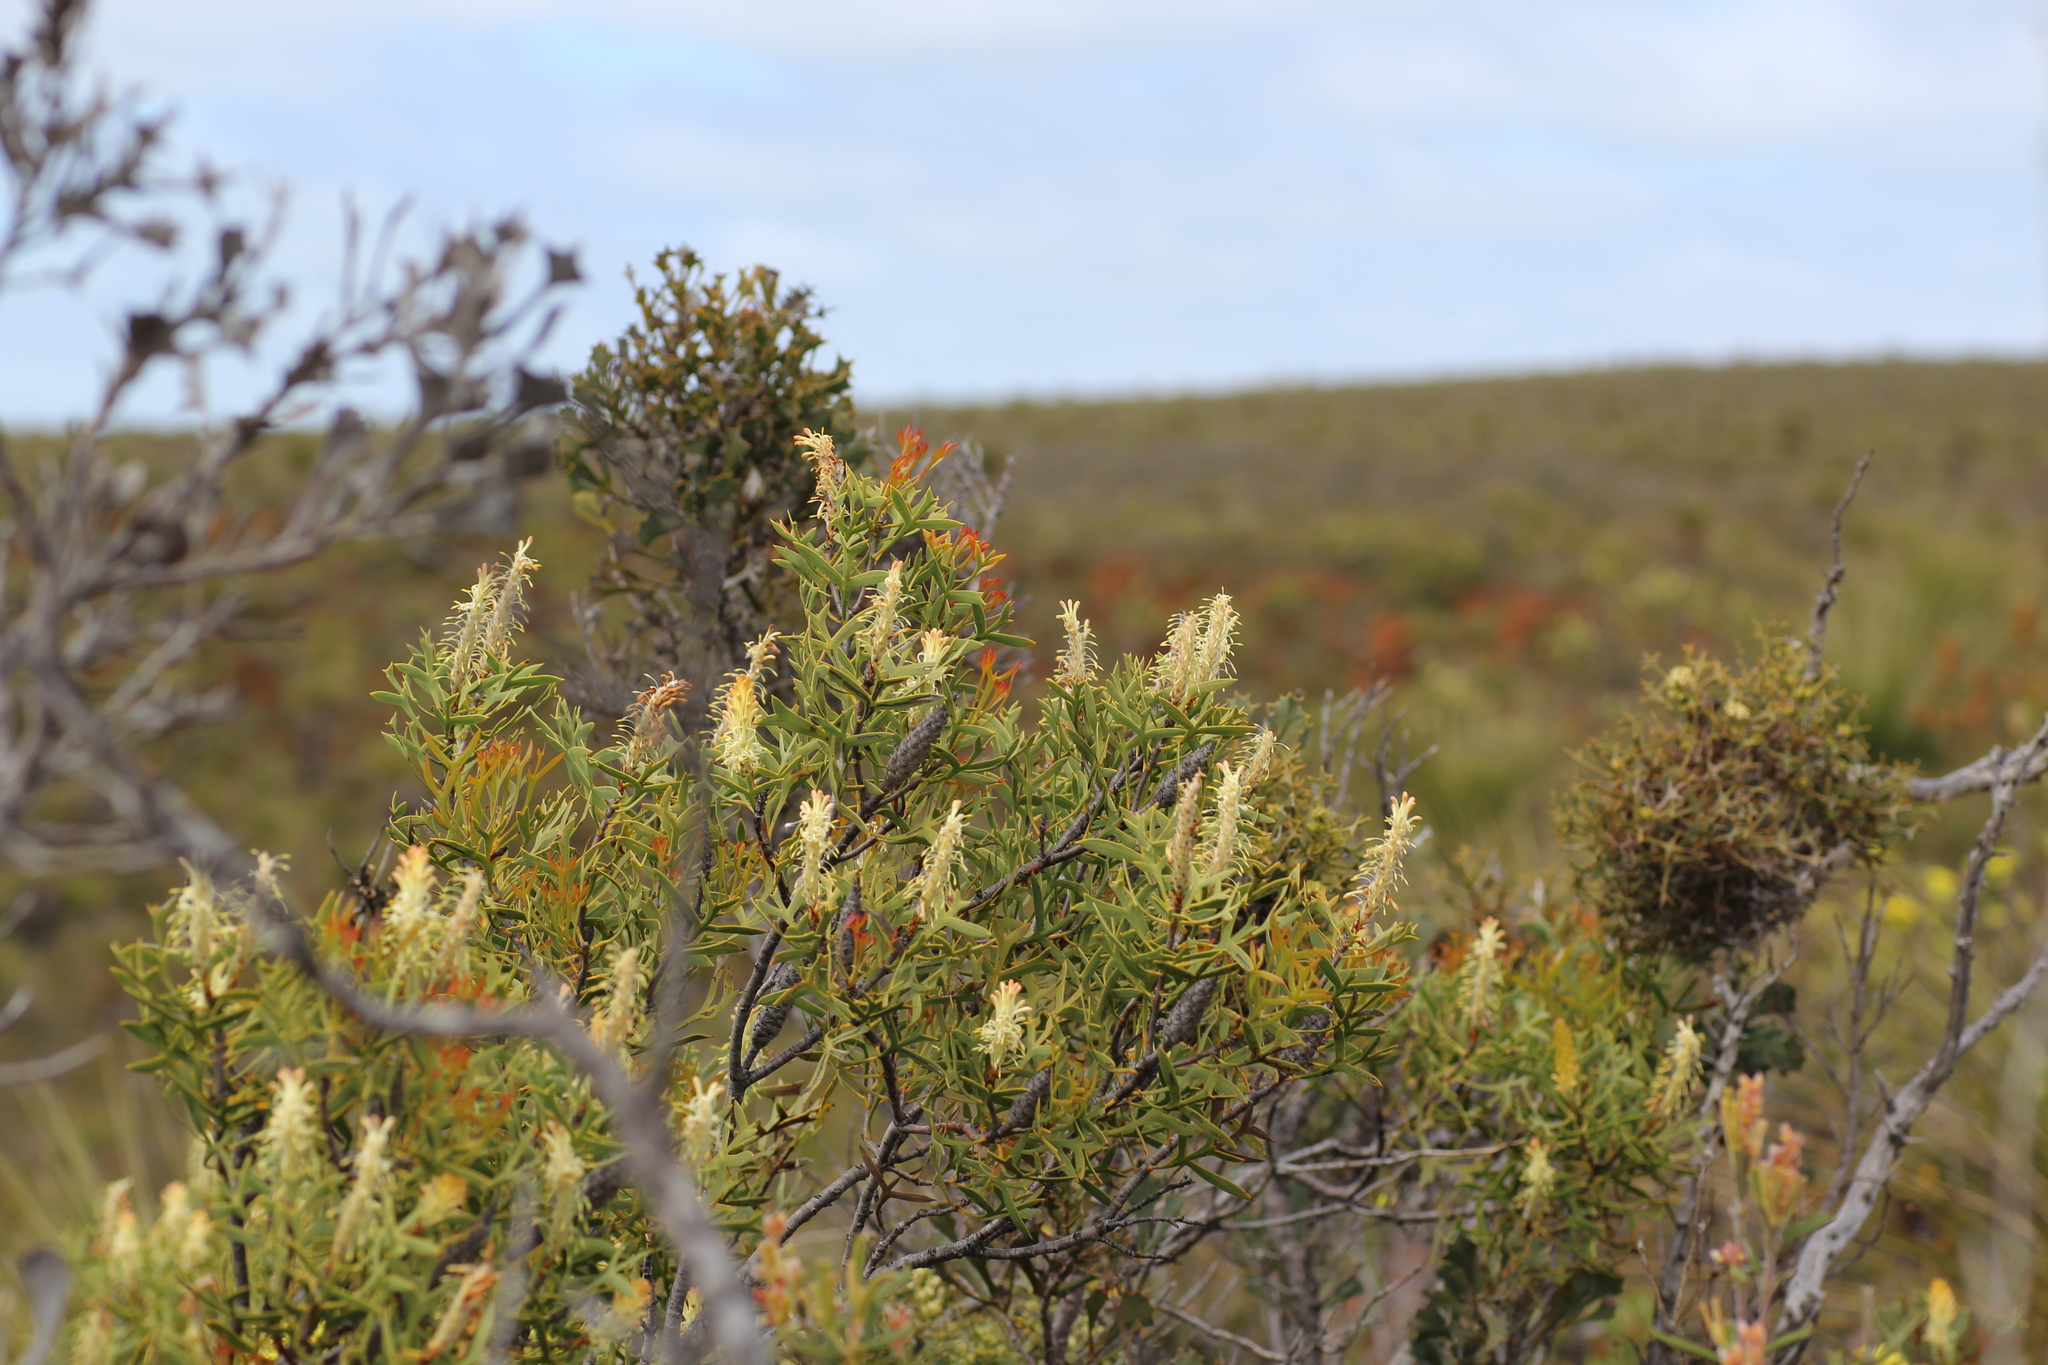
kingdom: Plantae
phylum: Tracheophyta
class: Magnoliopsida
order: Proteales
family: Proteaceae
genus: Petrophile
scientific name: Petrophile shuttleworthiana
